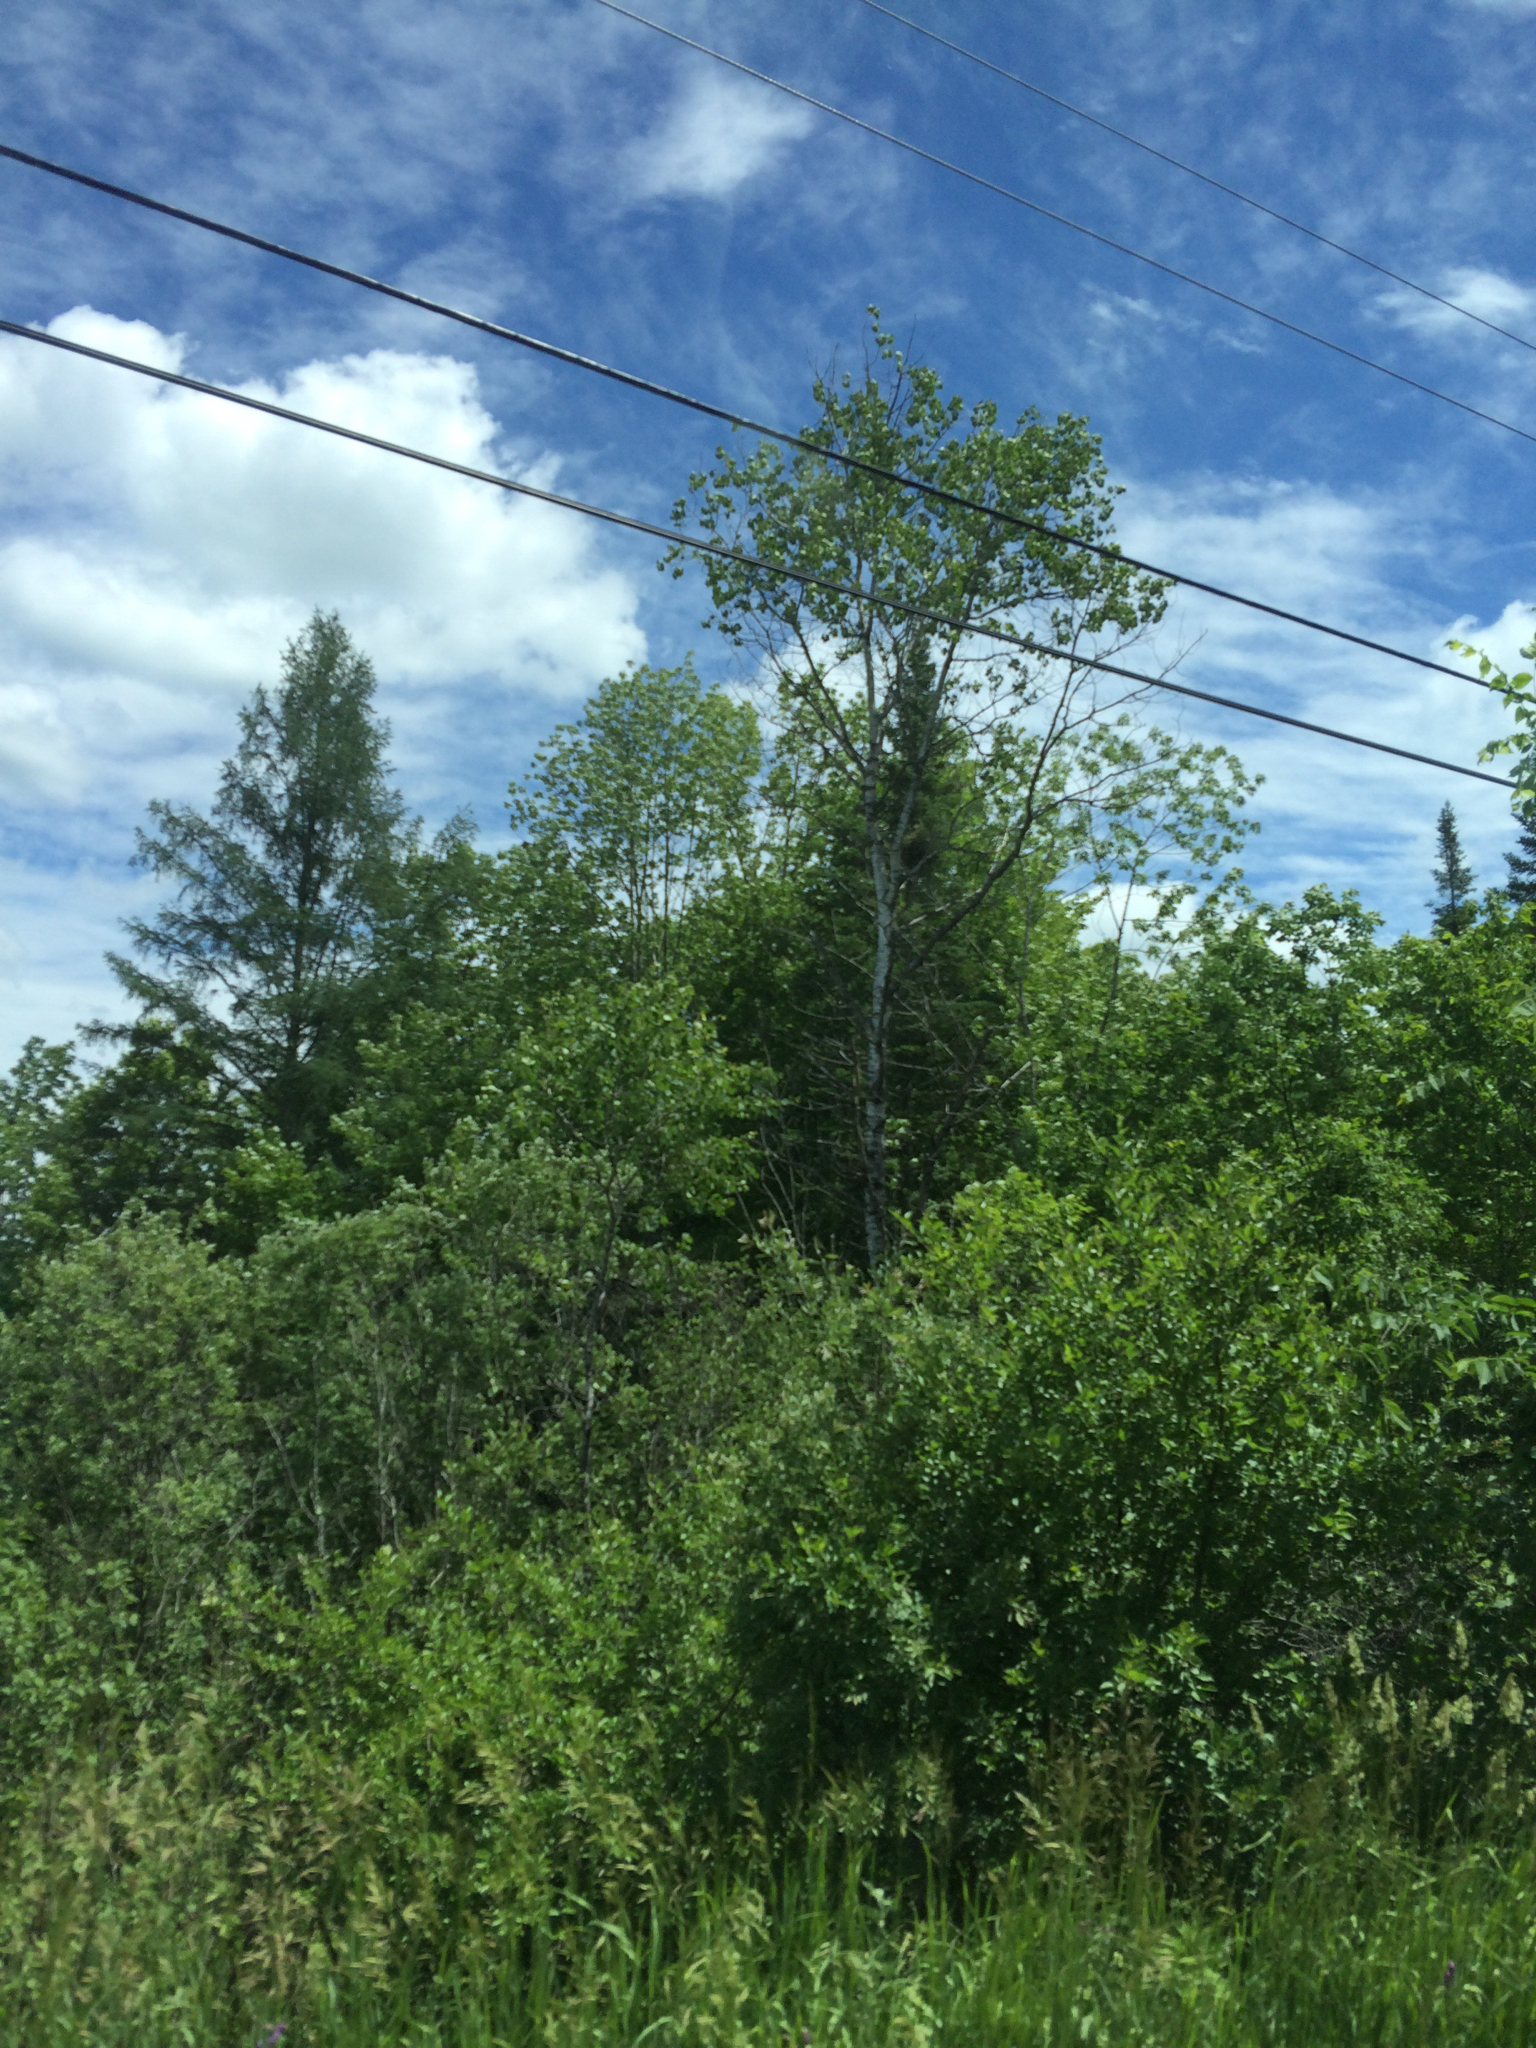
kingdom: Plantae
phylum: Tracheophyta
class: Magnoliopsida
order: Malpighiales
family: Salicaceae
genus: Populus
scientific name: Populus tremuloides
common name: Quaking aspen
